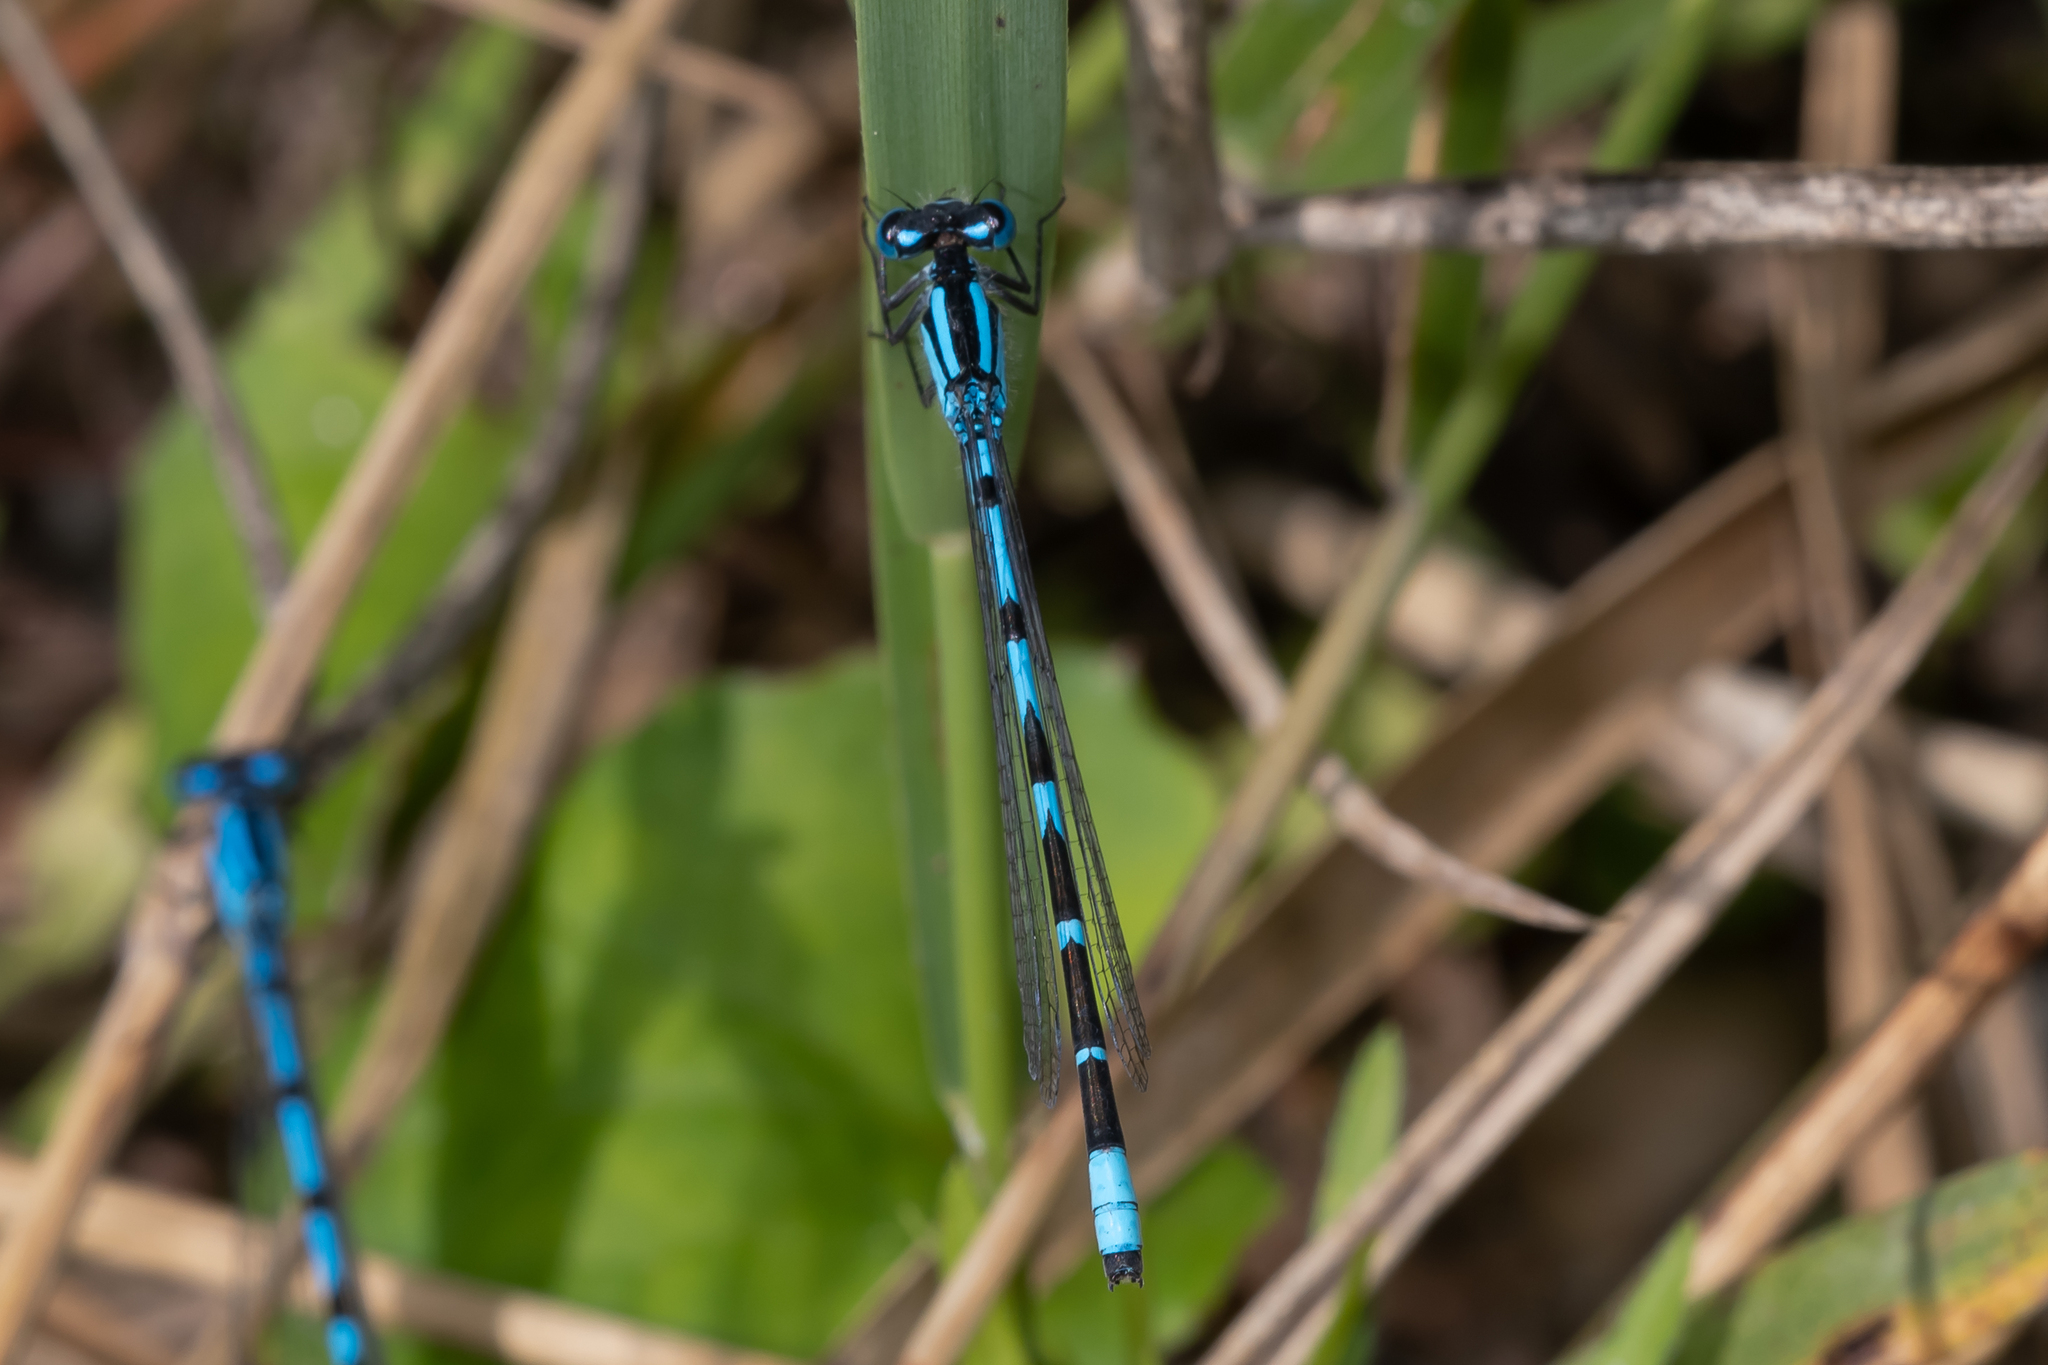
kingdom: Animalia
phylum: Arthropoda
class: Insecta
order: Odonata
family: Coenagrionidae
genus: Enallagma
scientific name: Enallagma cyathigerum
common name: Common blue damselfly
